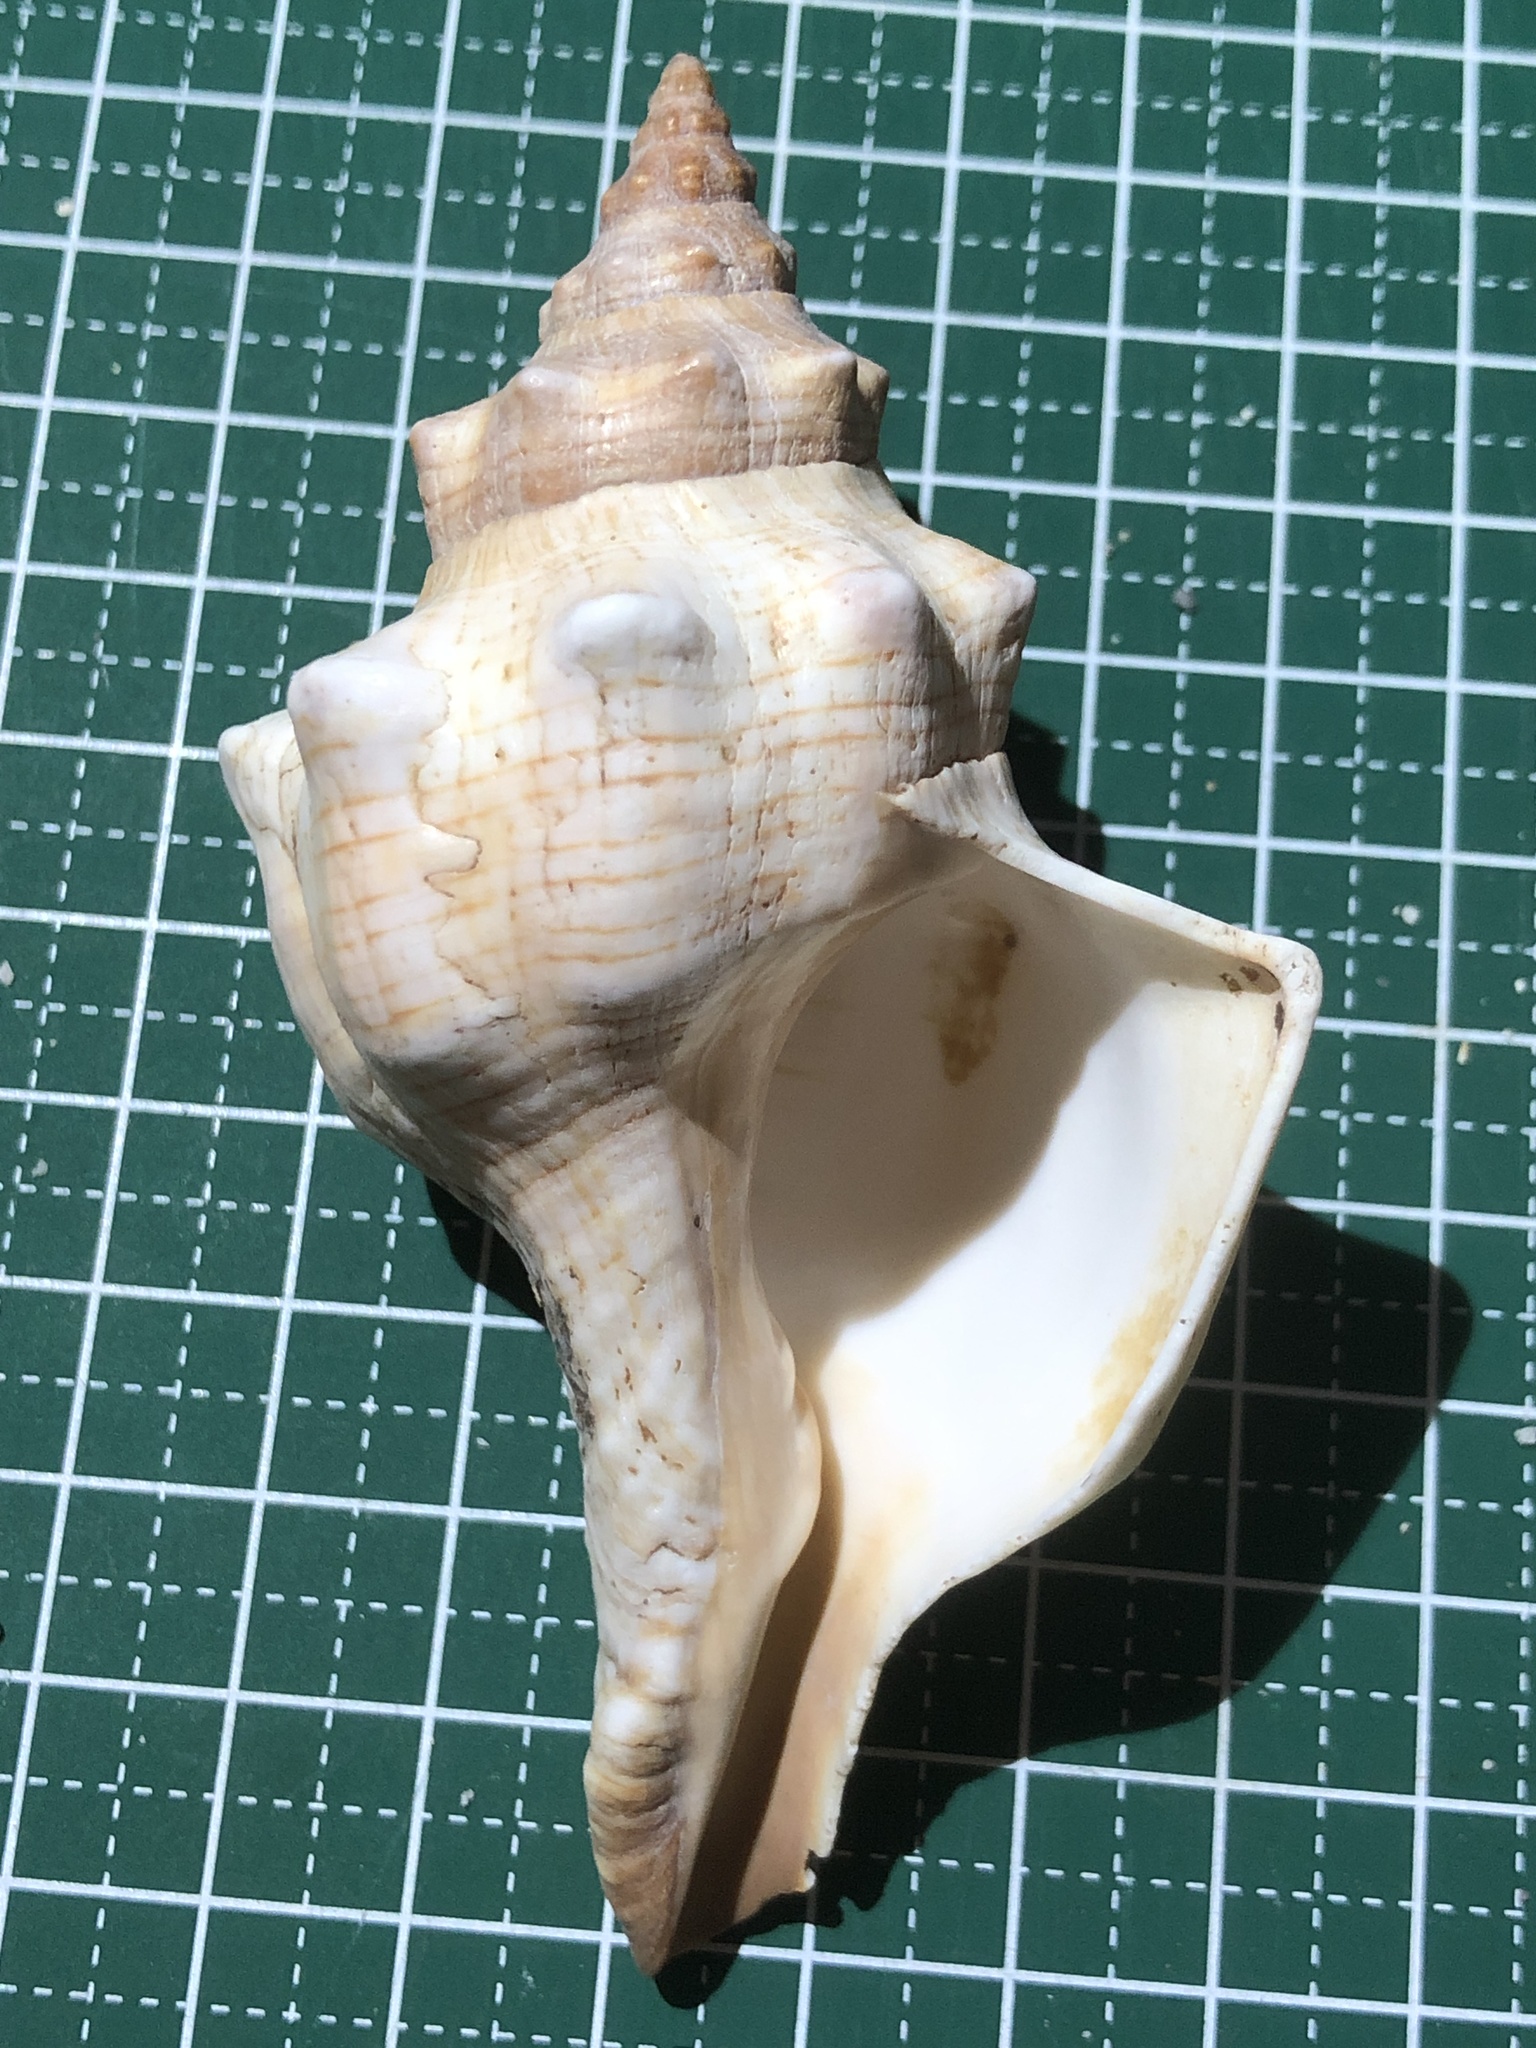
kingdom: Animalia
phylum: Mollusca
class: Gastropoda
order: Neogastropoda
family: Fasciolariidae
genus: Pleuroploca
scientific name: Pleuroploca trapezium
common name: Trapeze horseconch
